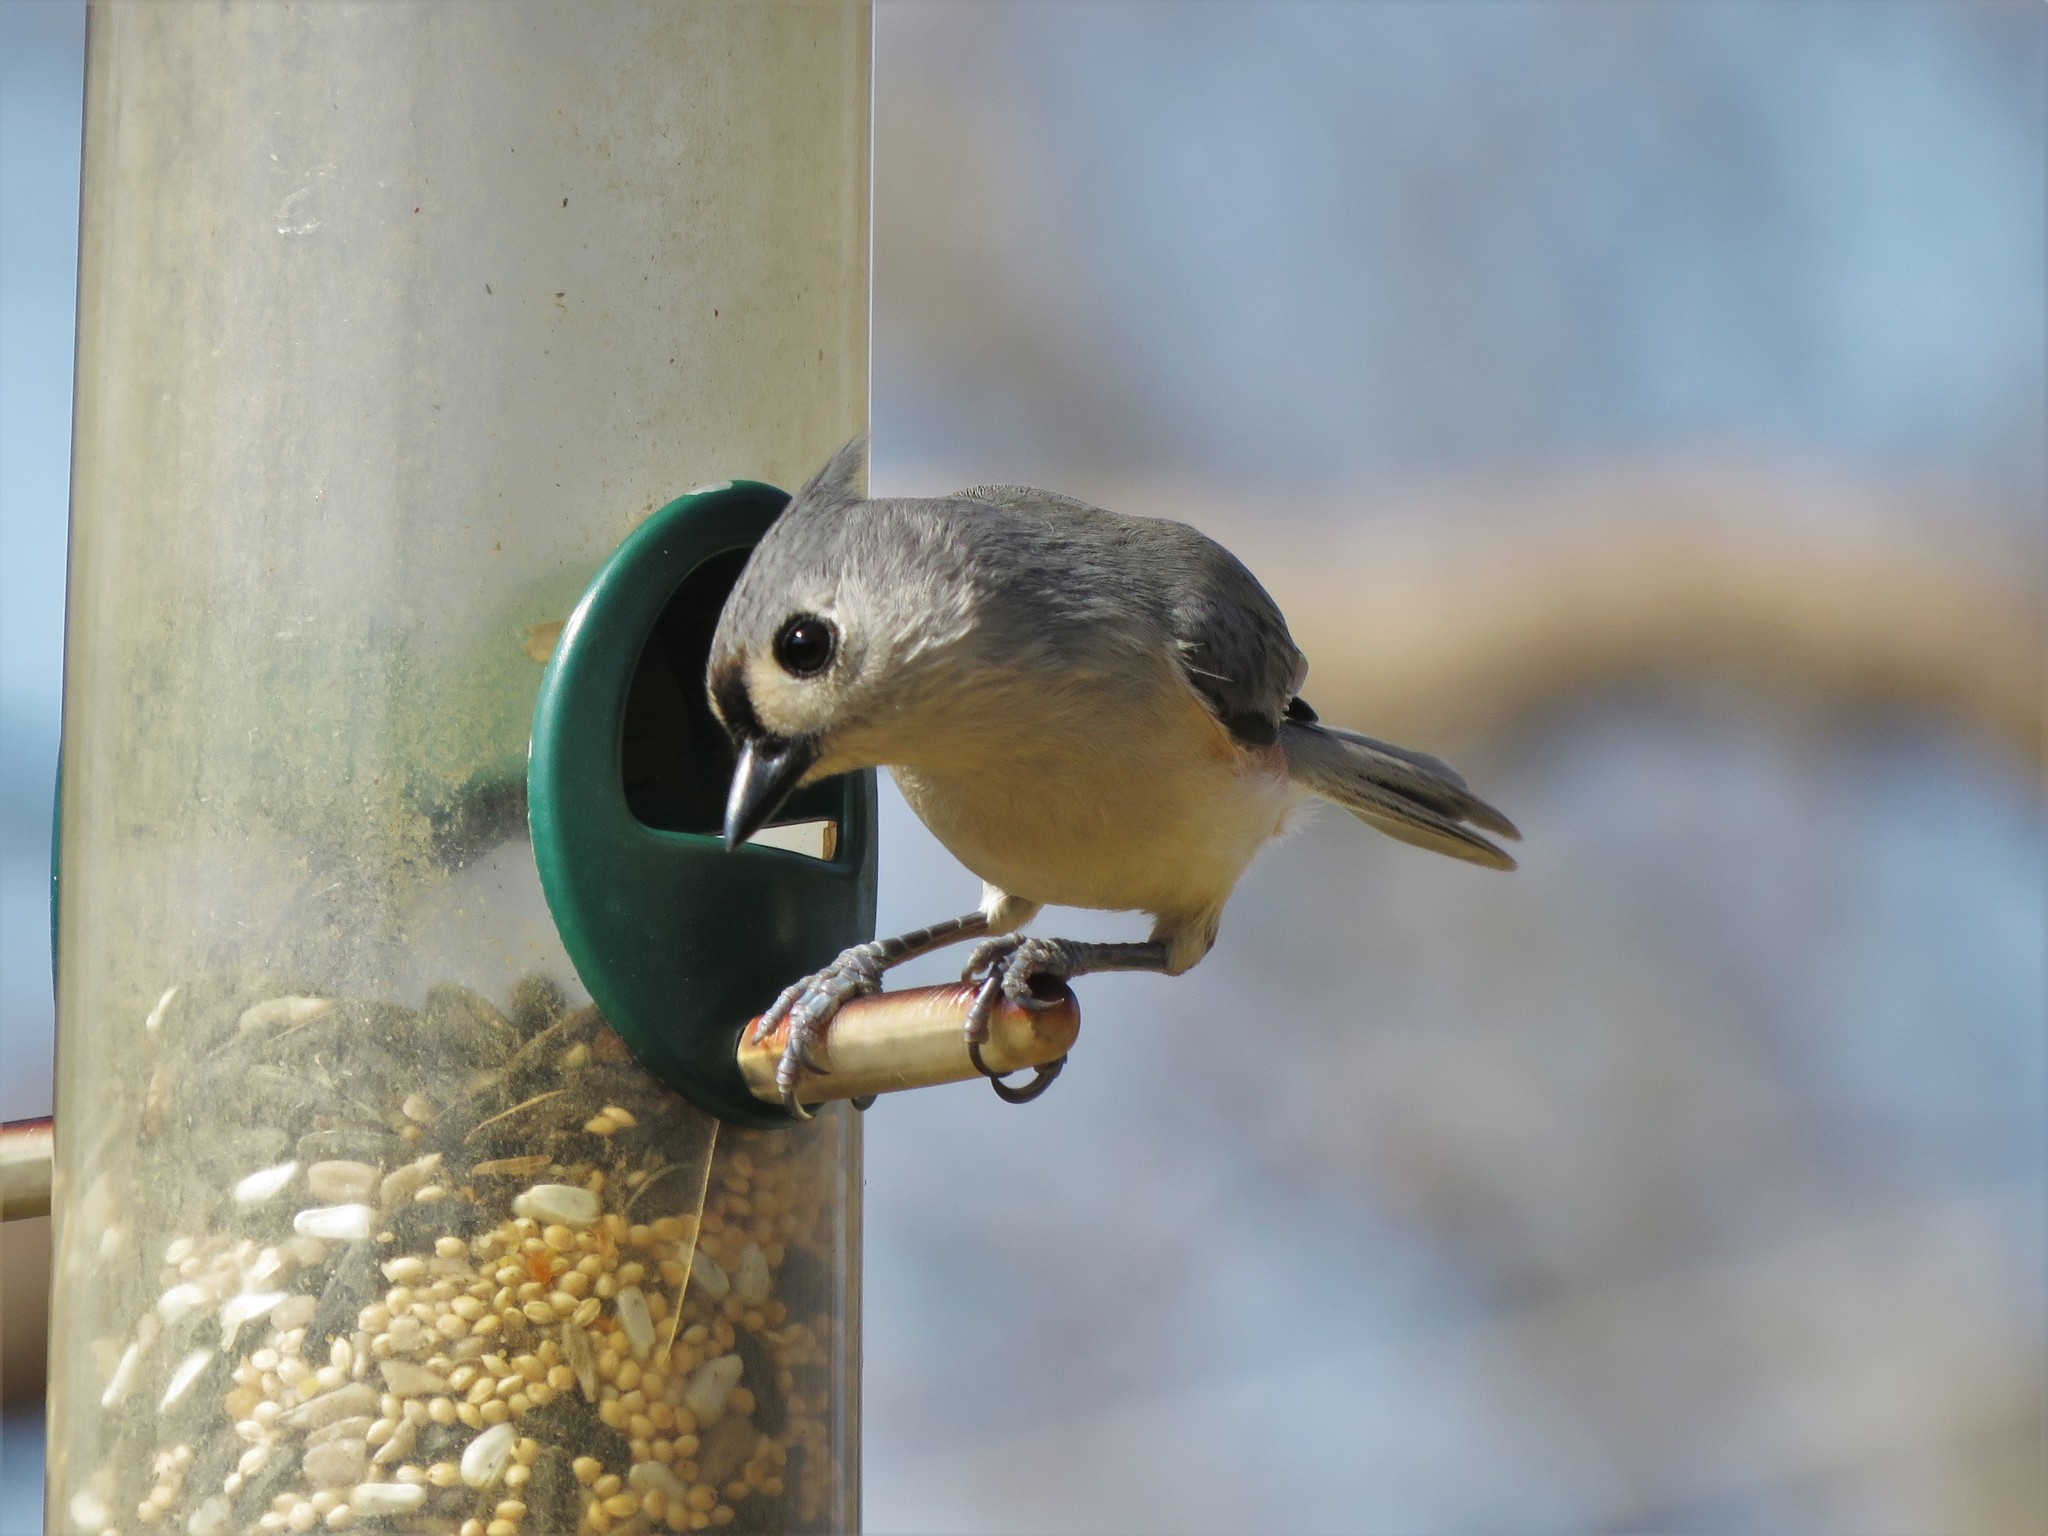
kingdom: Animalia
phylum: Chordata
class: Aves
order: Passeriformes
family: Paridae
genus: Baeolophus
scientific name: Baeolophus bicolor
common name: Tufted titmouse
